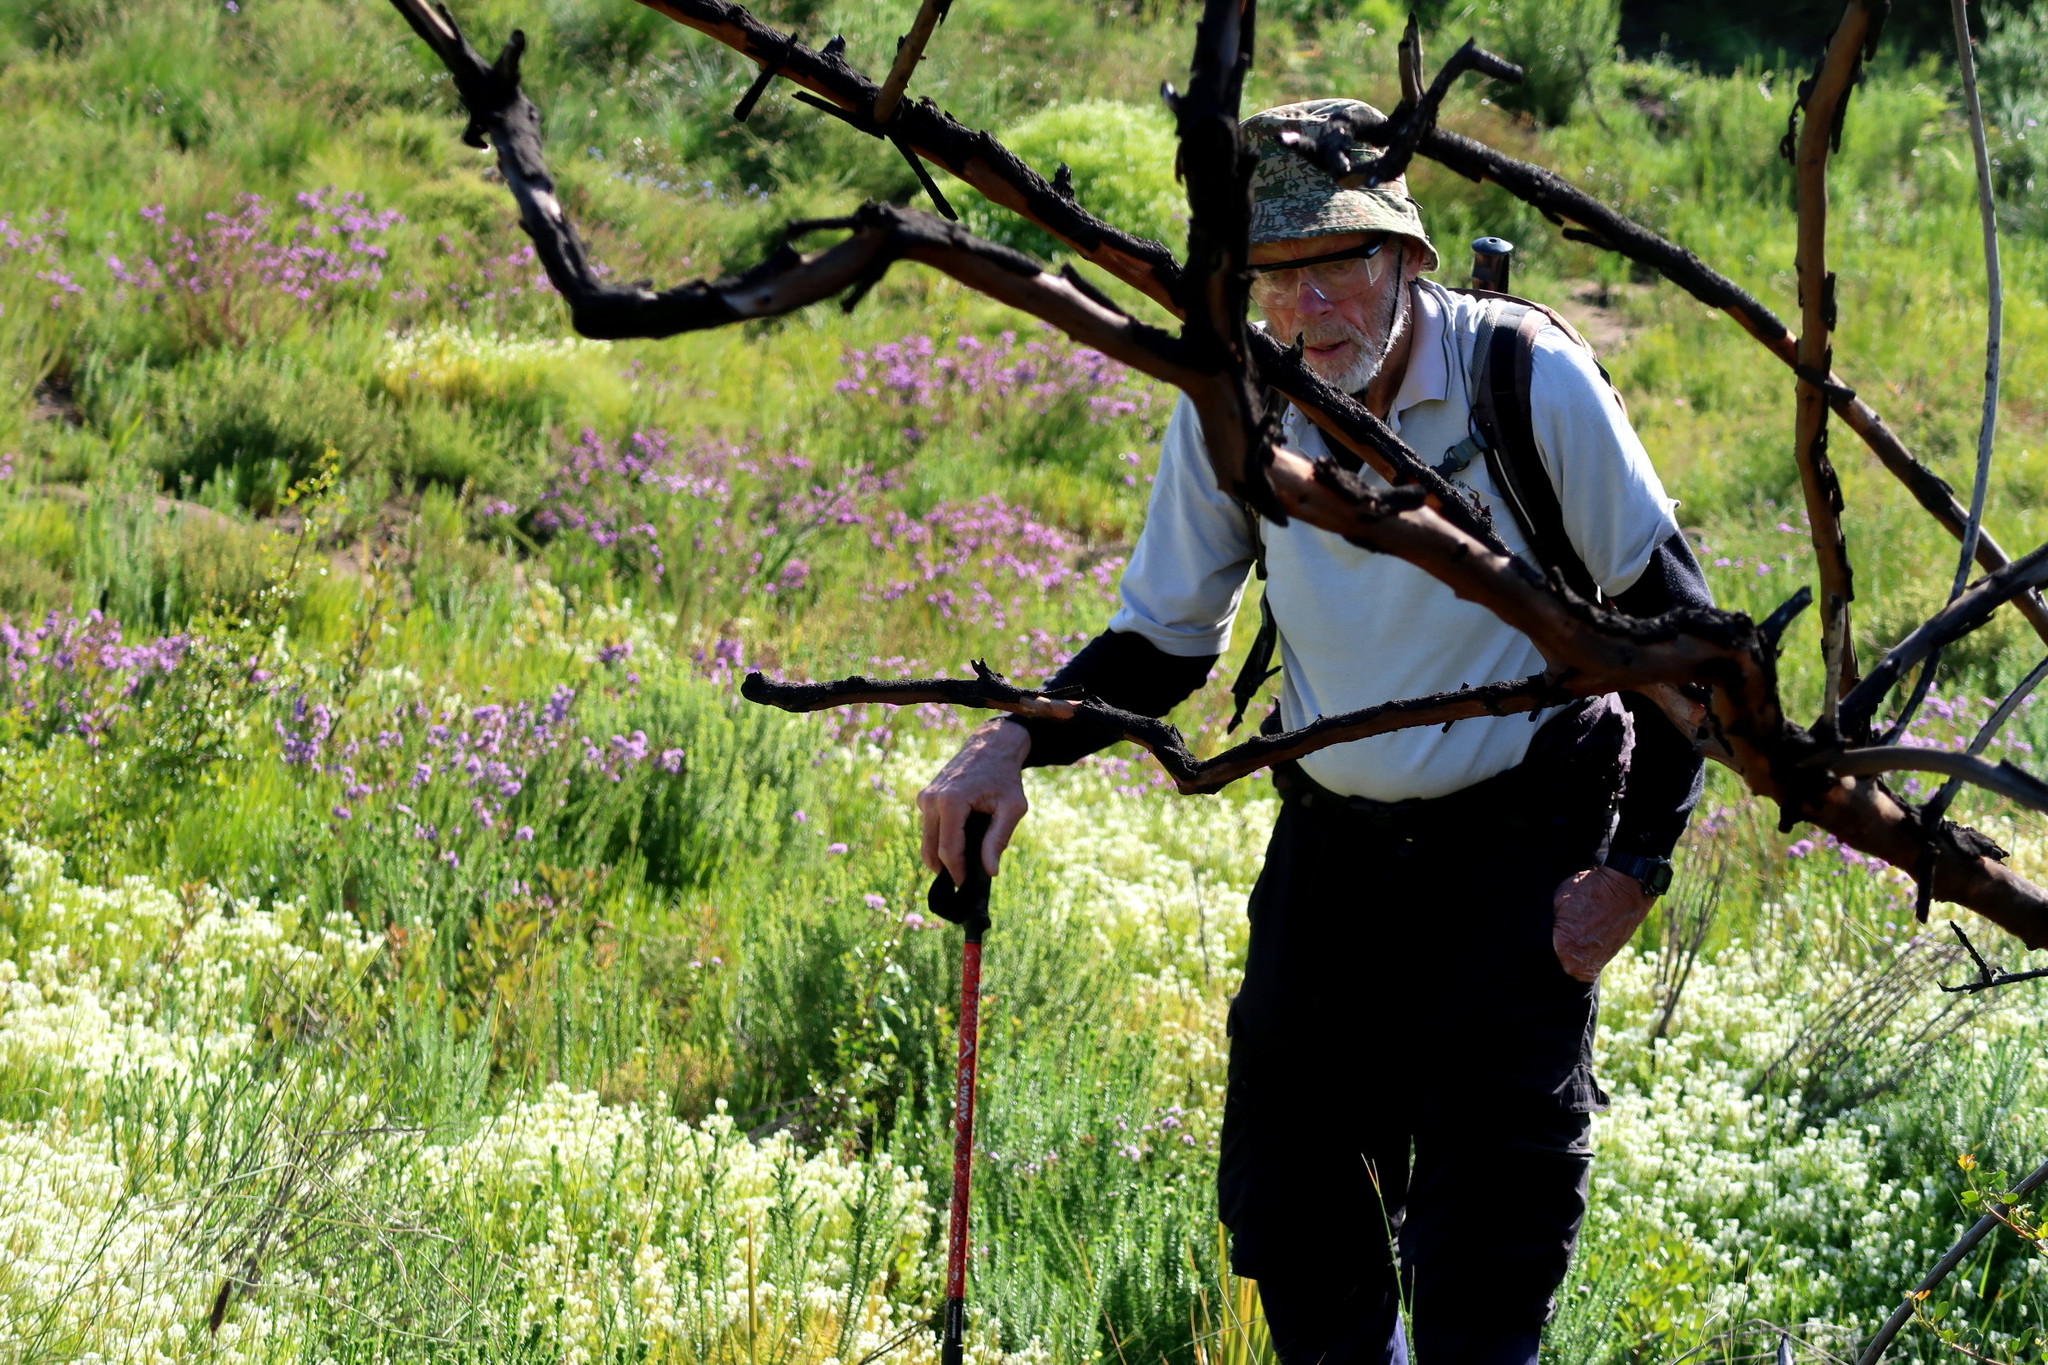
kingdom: Plantae
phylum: Tracheophyta
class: Magnoliopsida
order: Lamiales
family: Scrophulariaceae
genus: Dischisma
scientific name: Dischisma ciliatum
